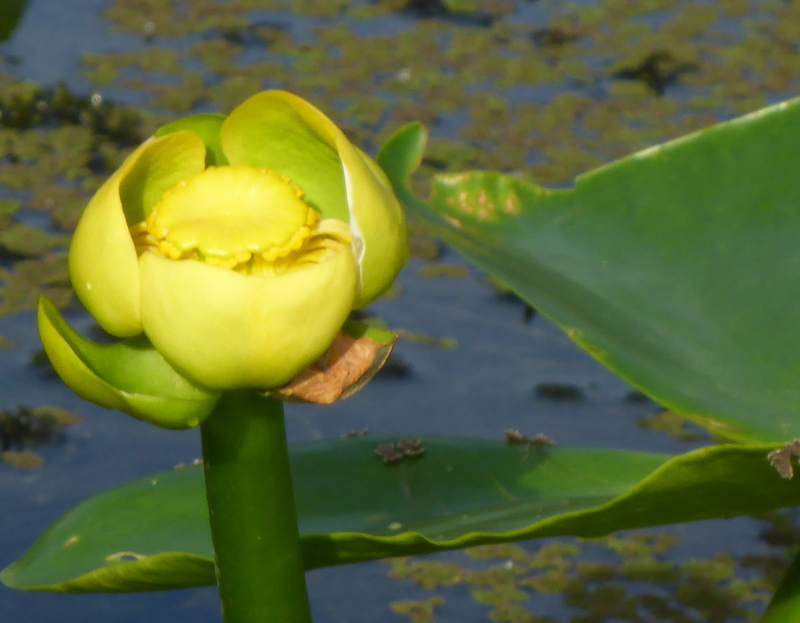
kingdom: Plantae
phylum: Tracheophyta
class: Magnoliopsida
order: Nymphaeales
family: Nymphaeaceae
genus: Nuphar
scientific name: Nuphar advena
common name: Spatter-dock
